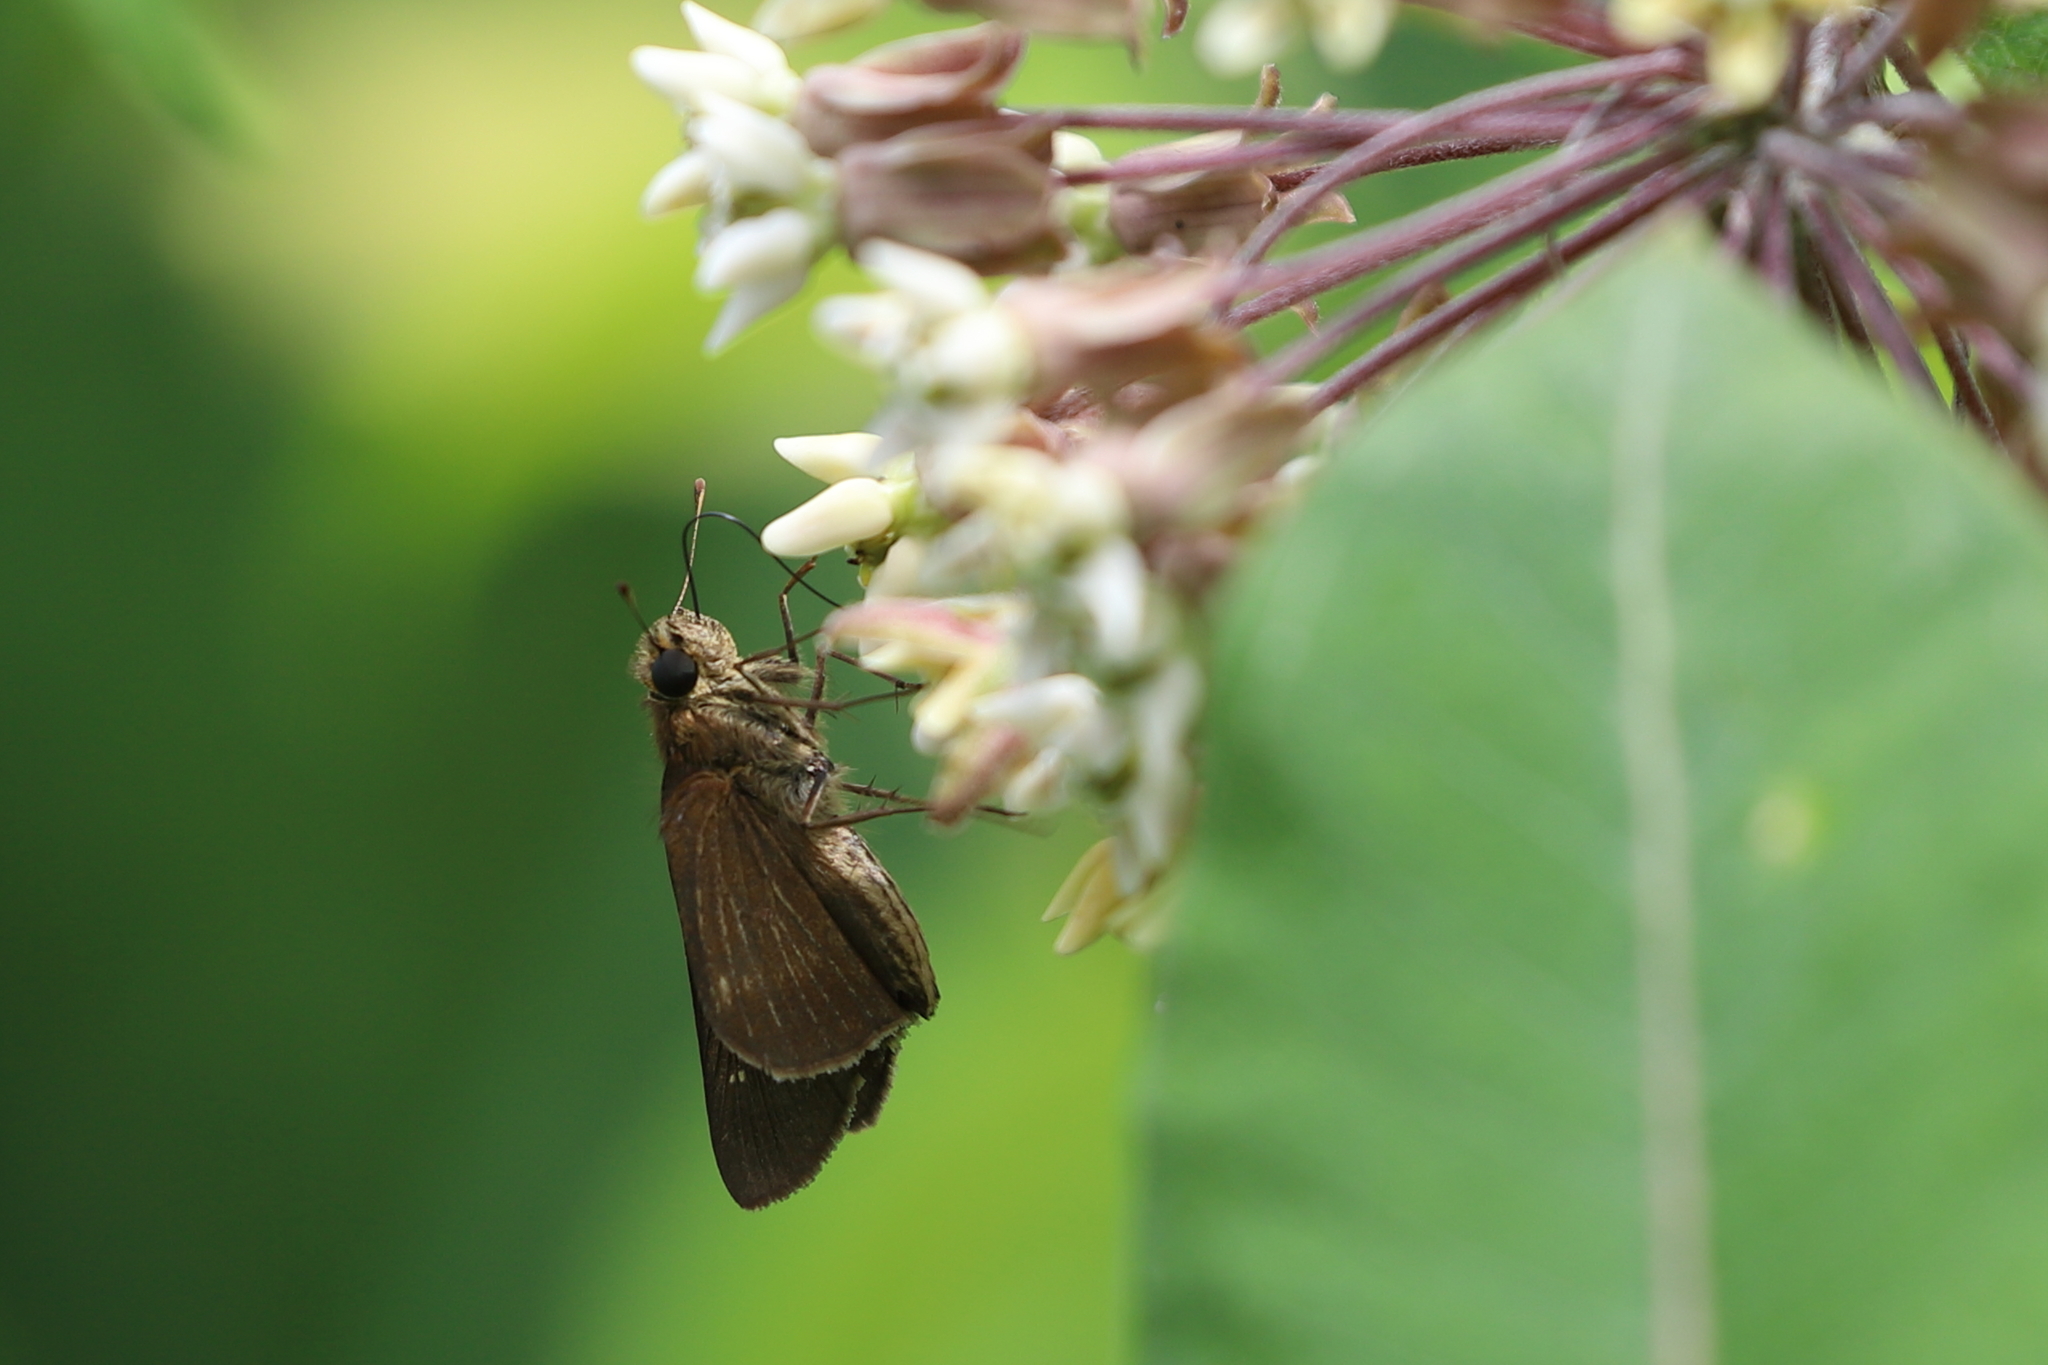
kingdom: Animalia
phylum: Arthropoda
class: Insecta
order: Lepidoptera
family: Hesperiidae
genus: Panoquina
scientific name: Panoquina ocola
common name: Ocola skipper
